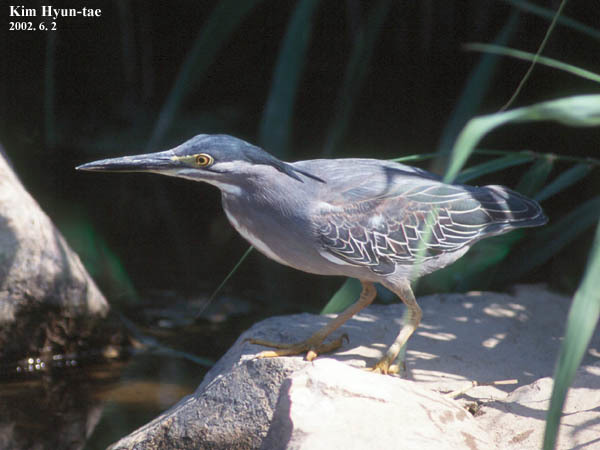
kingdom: Animalia
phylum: Chordata
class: Aves
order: Pelecaniformes
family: Ardeidae
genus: Butorides
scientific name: Butorides striata
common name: Striated heron
